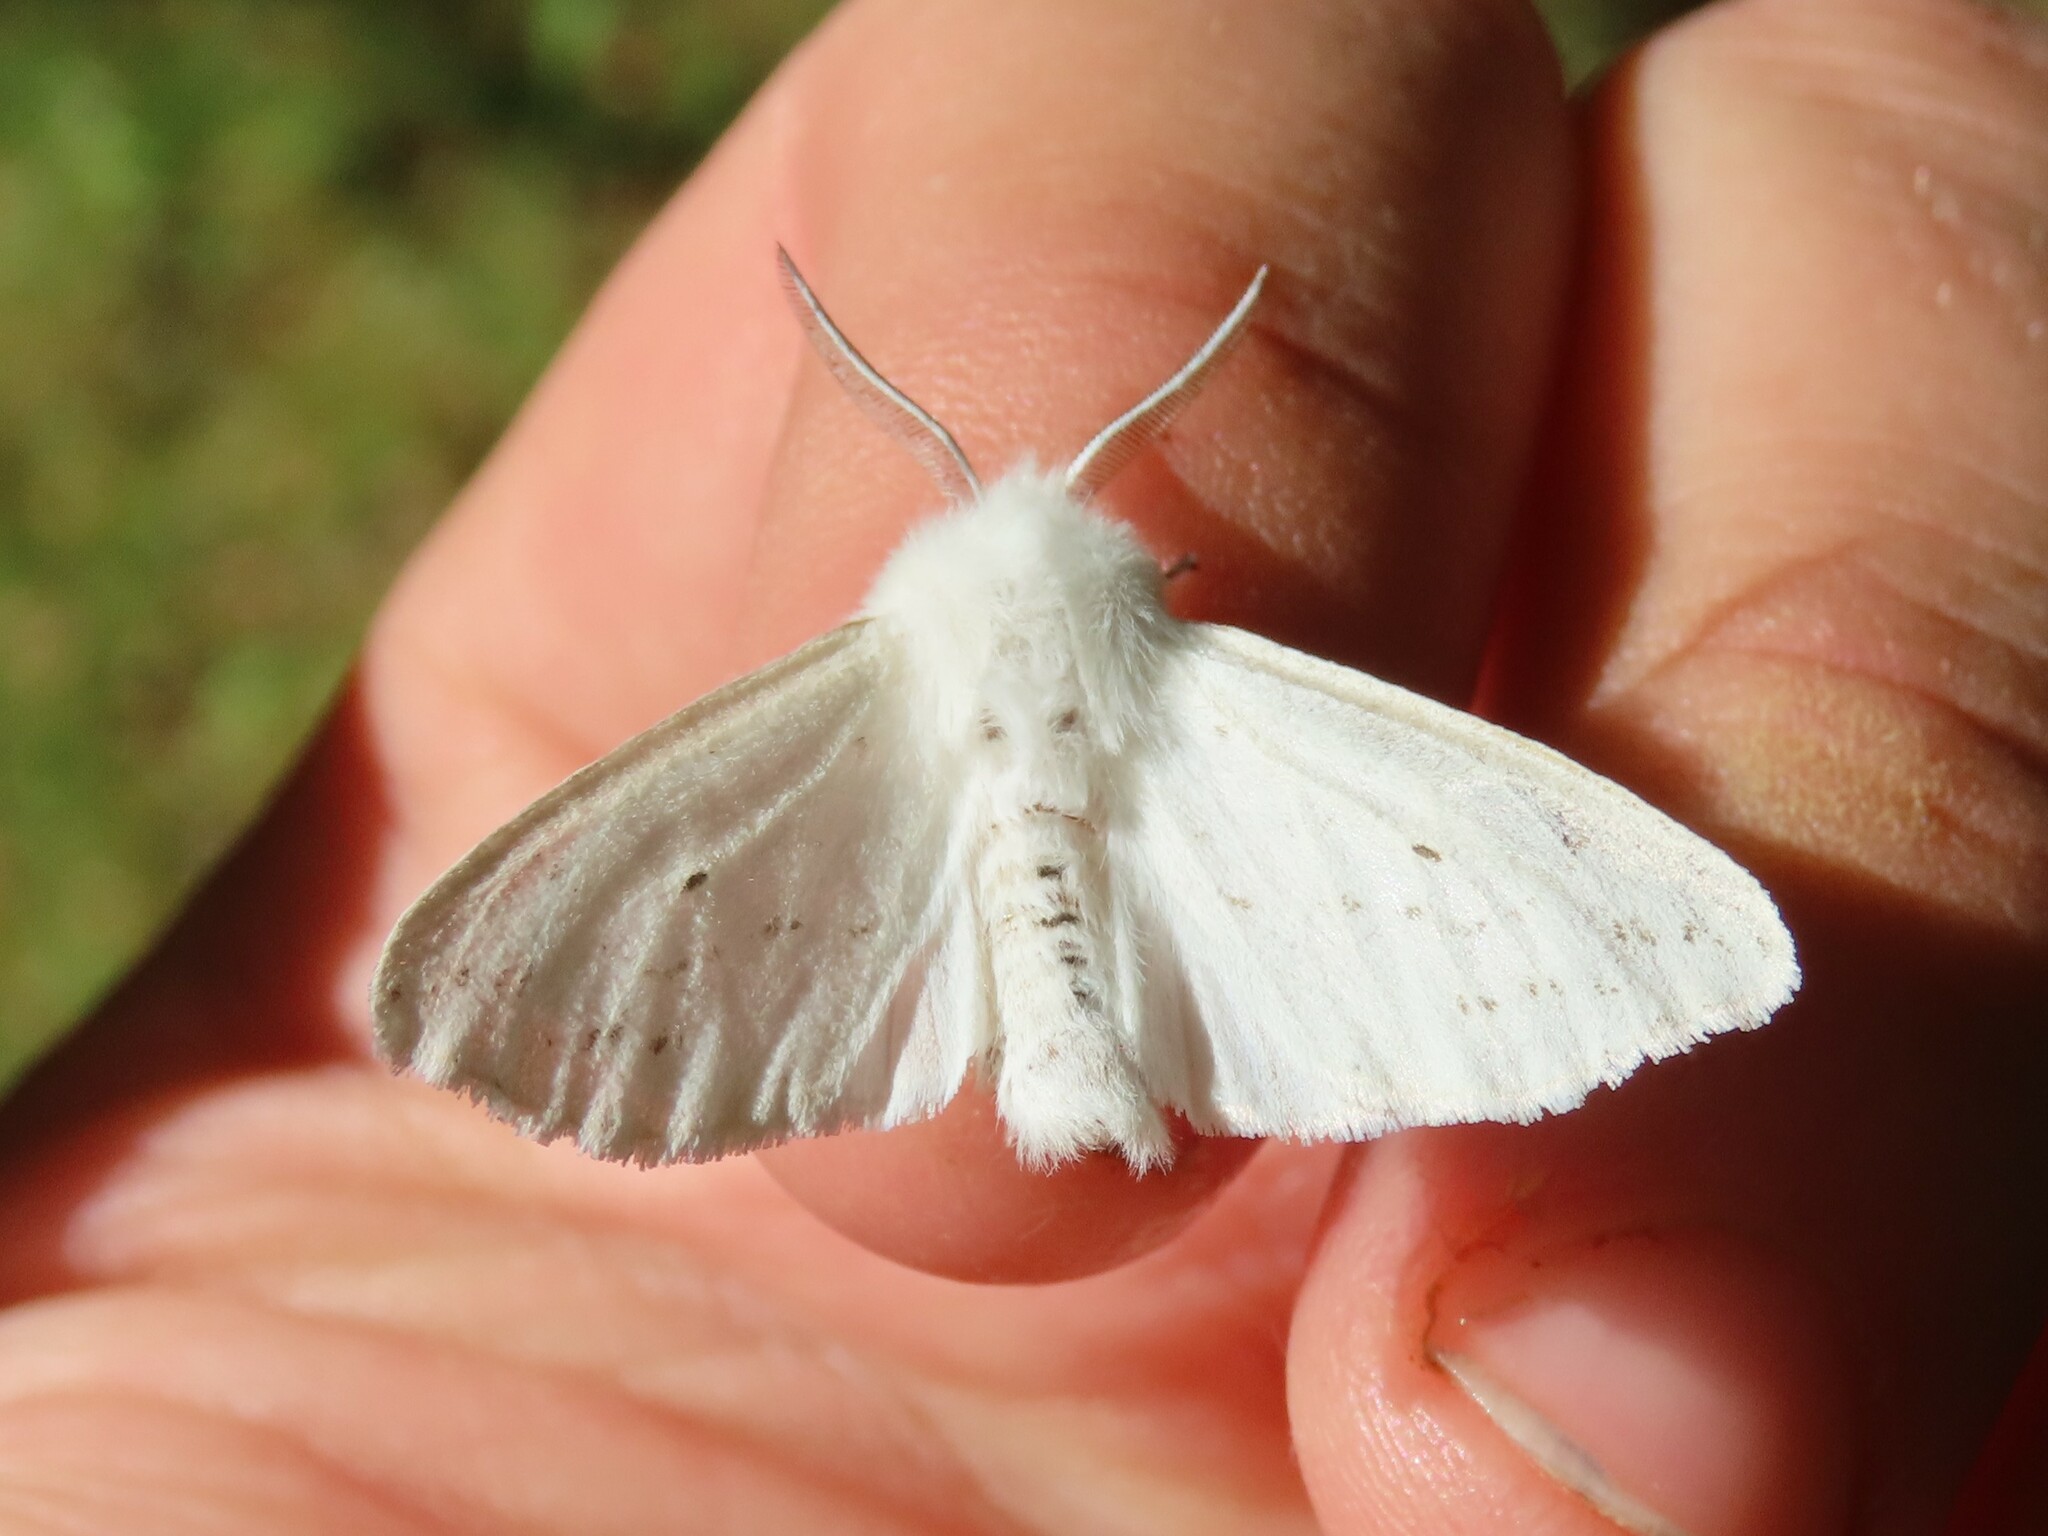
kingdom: Animalia
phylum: Arthropoda
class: Insecta
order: Lepidoptera
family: Erebidae
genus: Spilosoma
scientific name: Spilosoma congrua
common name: Agreeable tiger moth
